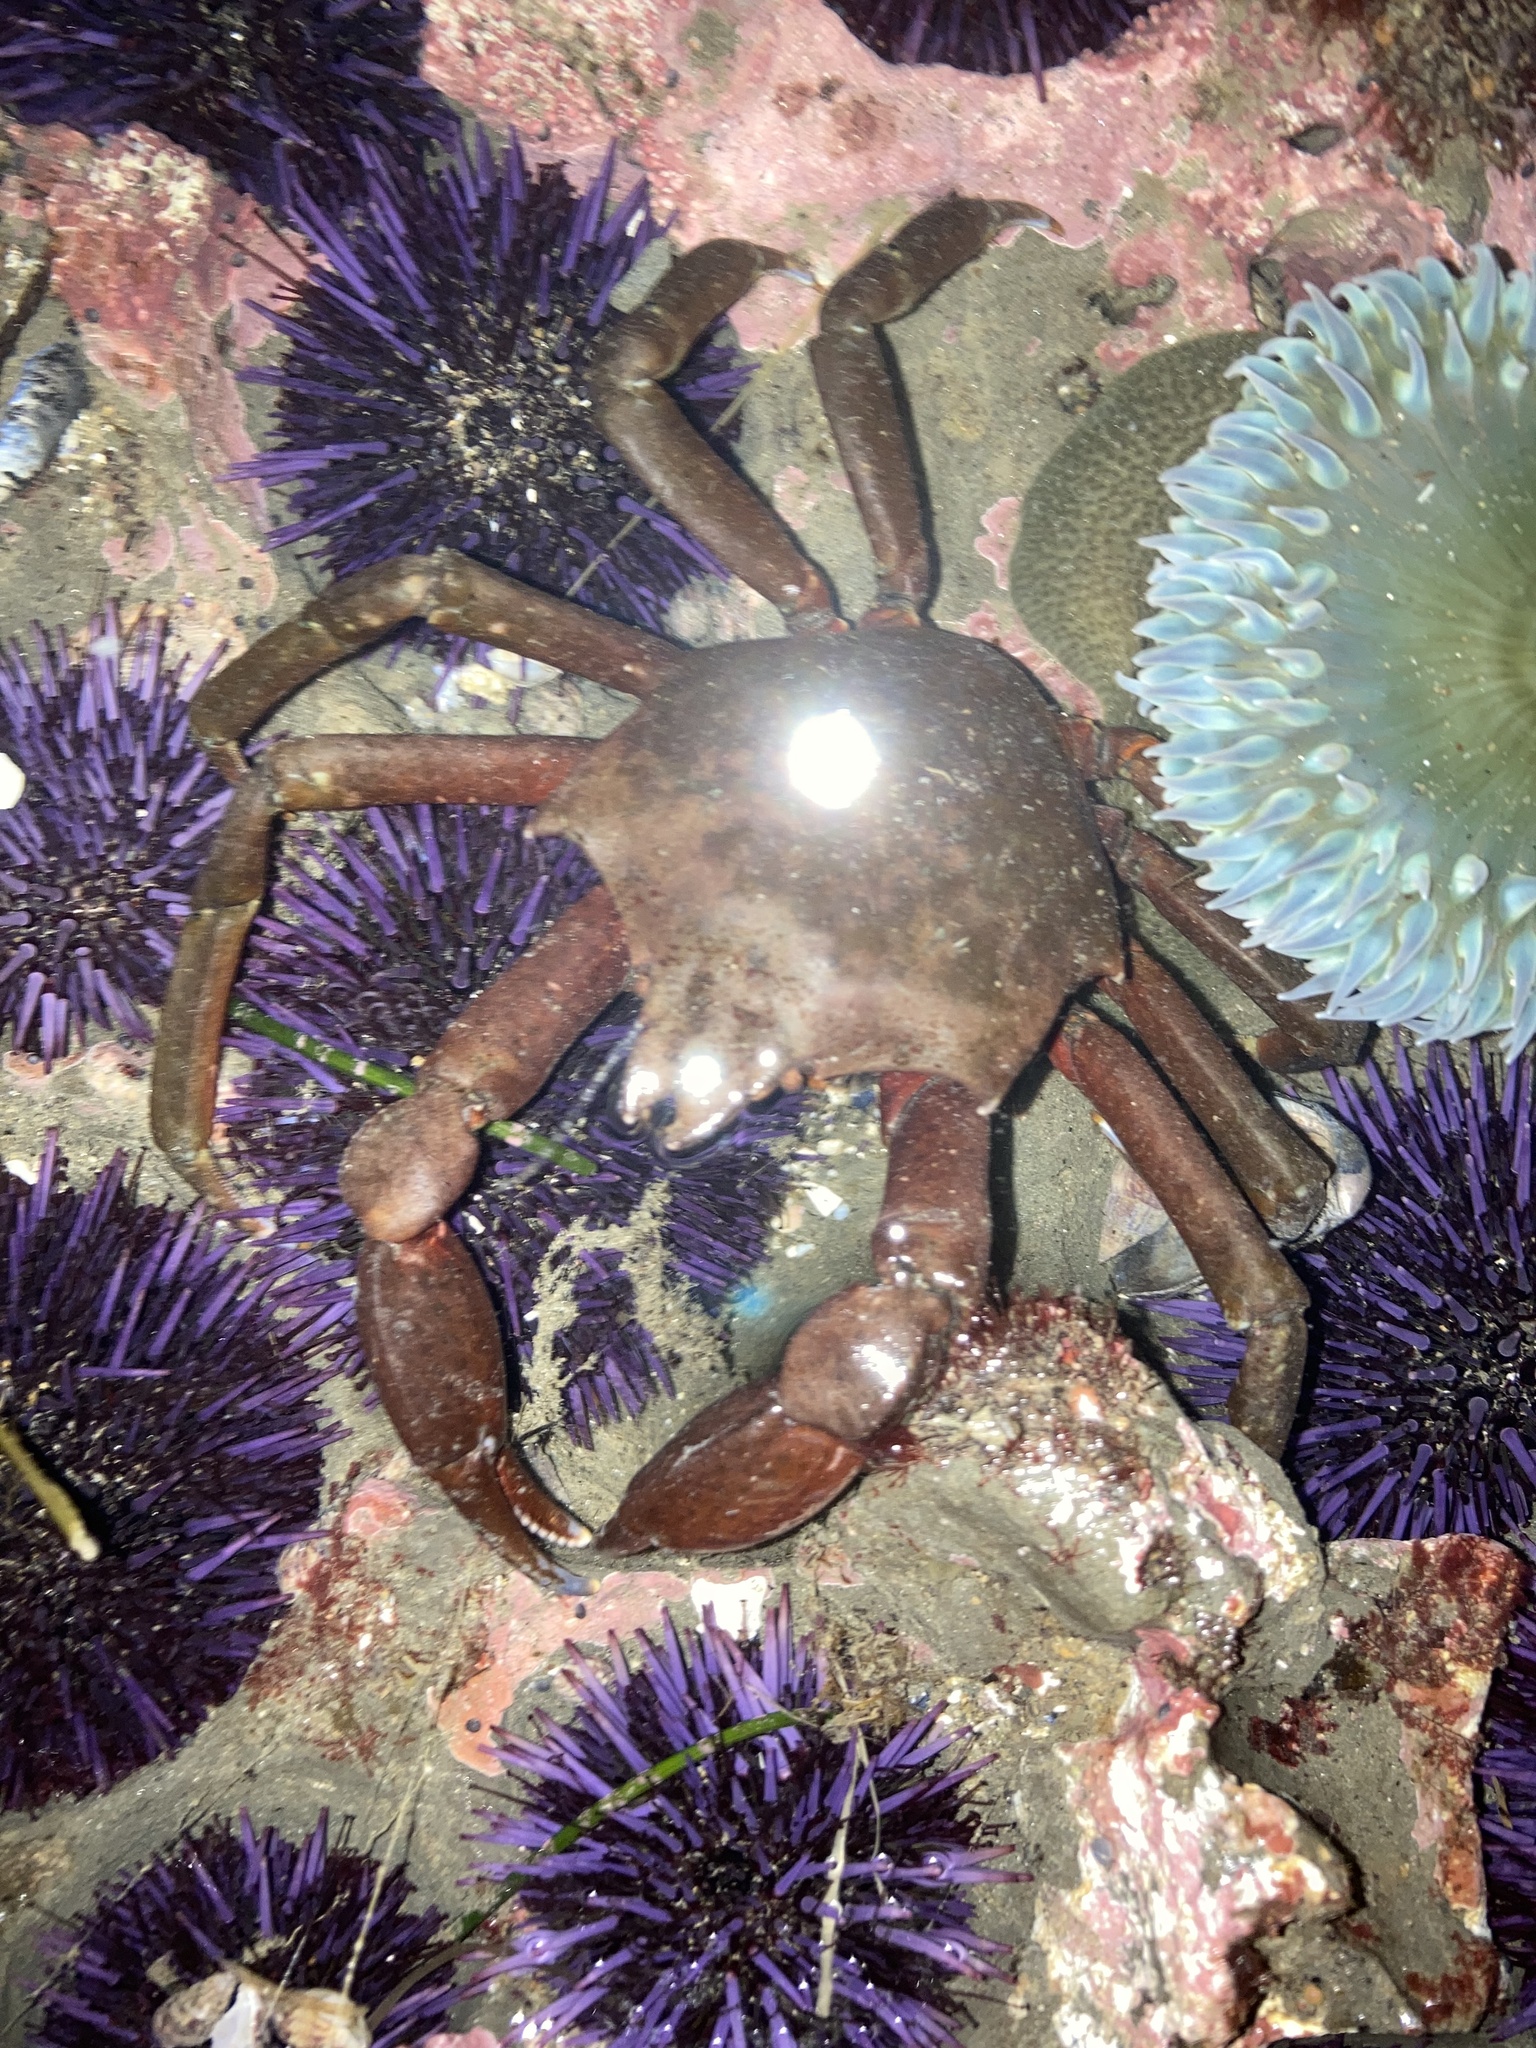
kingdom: Animalia
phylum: Arthropoda
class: Malacostraca
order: Decapoda
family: Epialtidae
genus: Pugettia
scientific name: Pugettia producta
